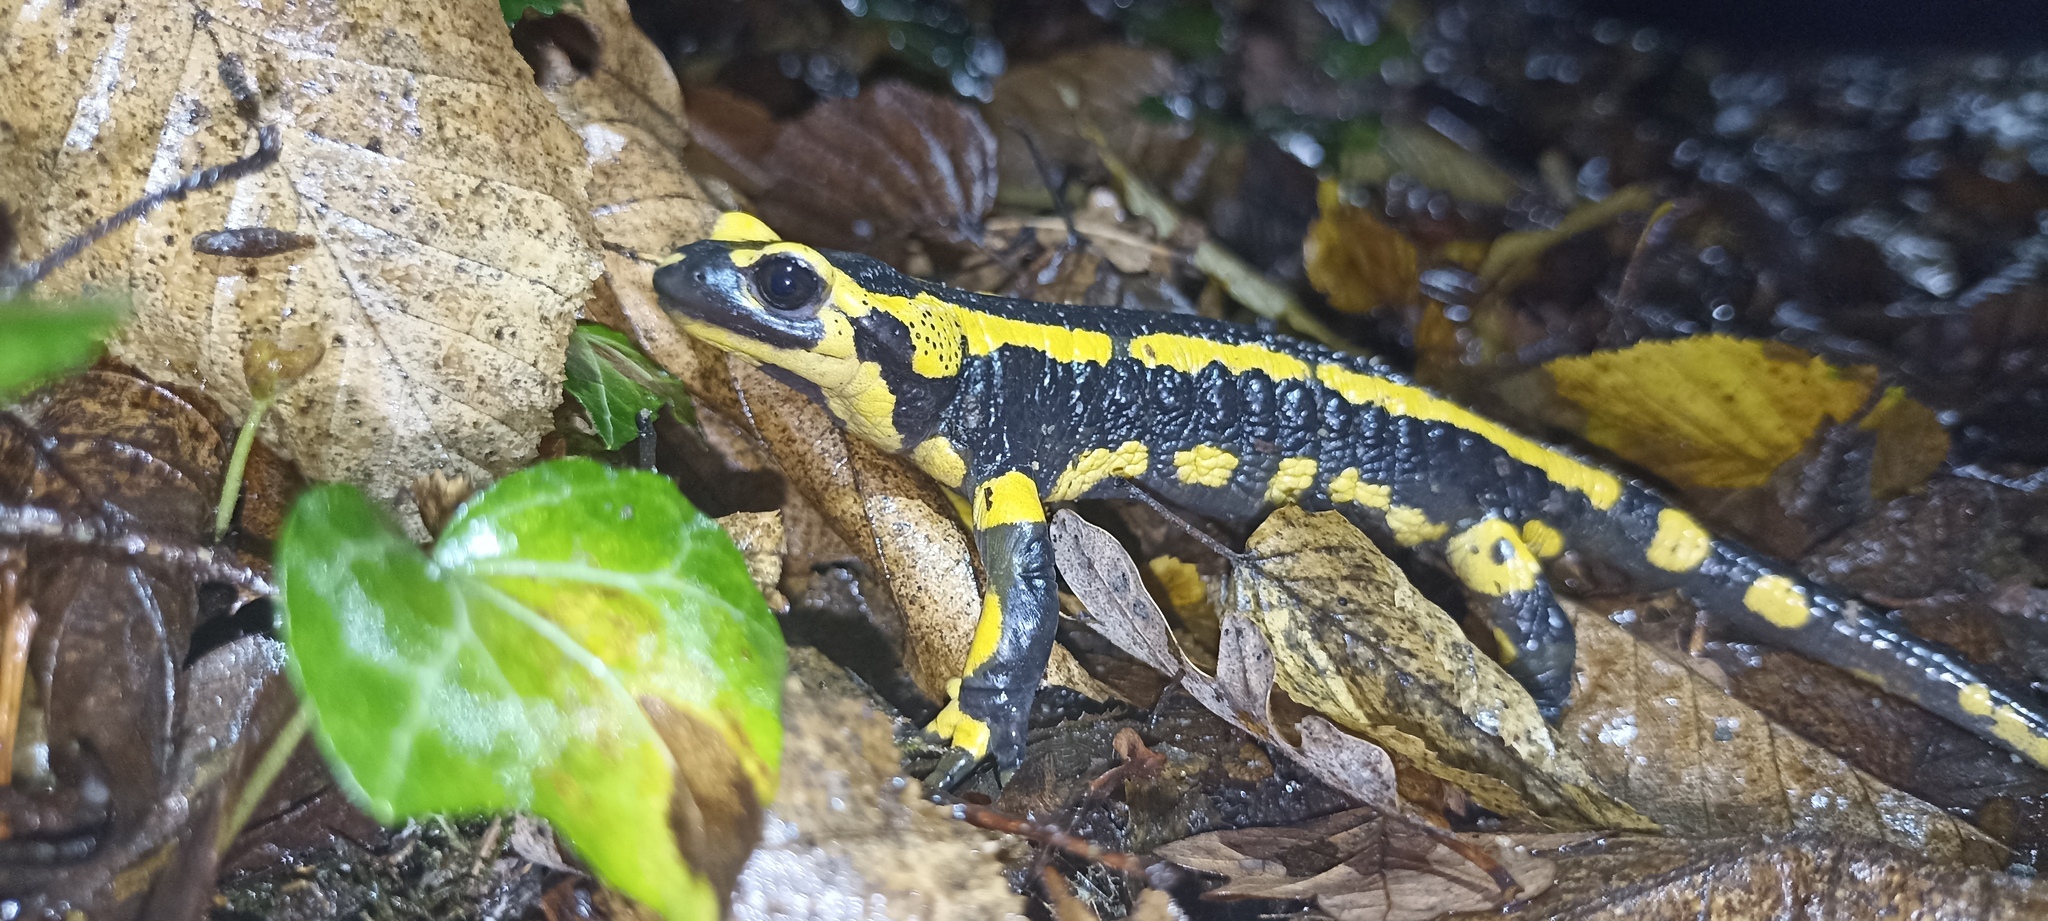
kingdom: Animalia
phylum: Chordata
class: Amphibia
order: Caudata
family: Salamandridae
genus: Salamandra
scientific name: Salamandra salamandra
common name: Fire salamander
